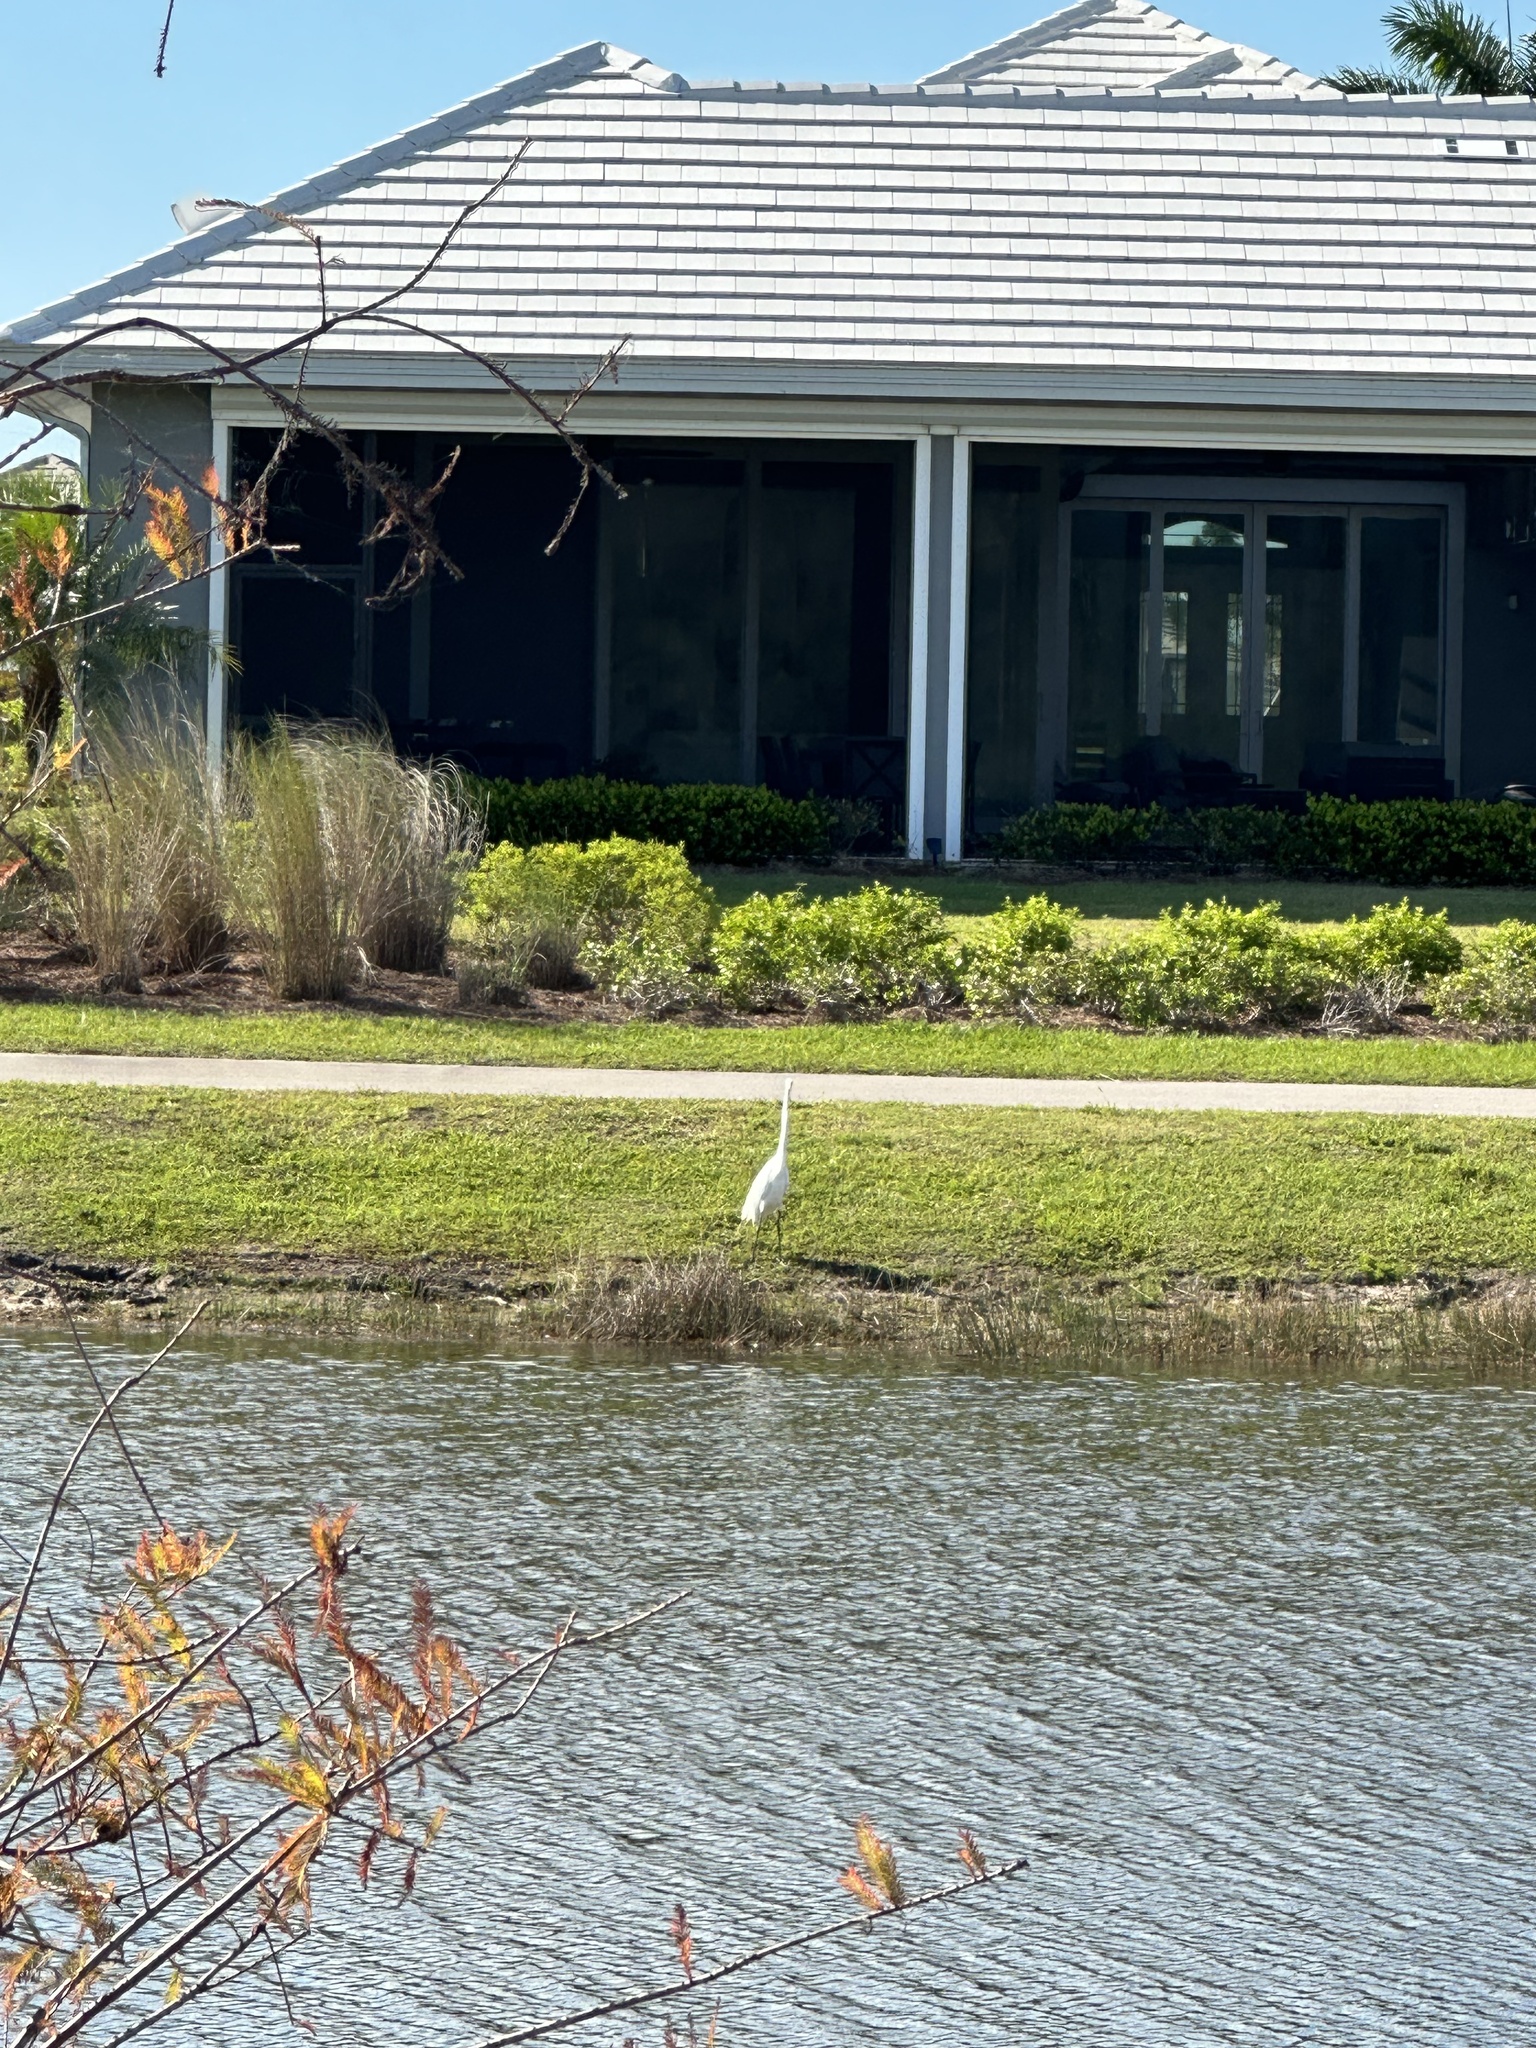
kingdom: Animalia
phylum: Chordata
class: Aves
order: Pelecaniformes
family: Ardeidae
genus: Ardea
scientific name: Ardea alba
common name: Great egret
